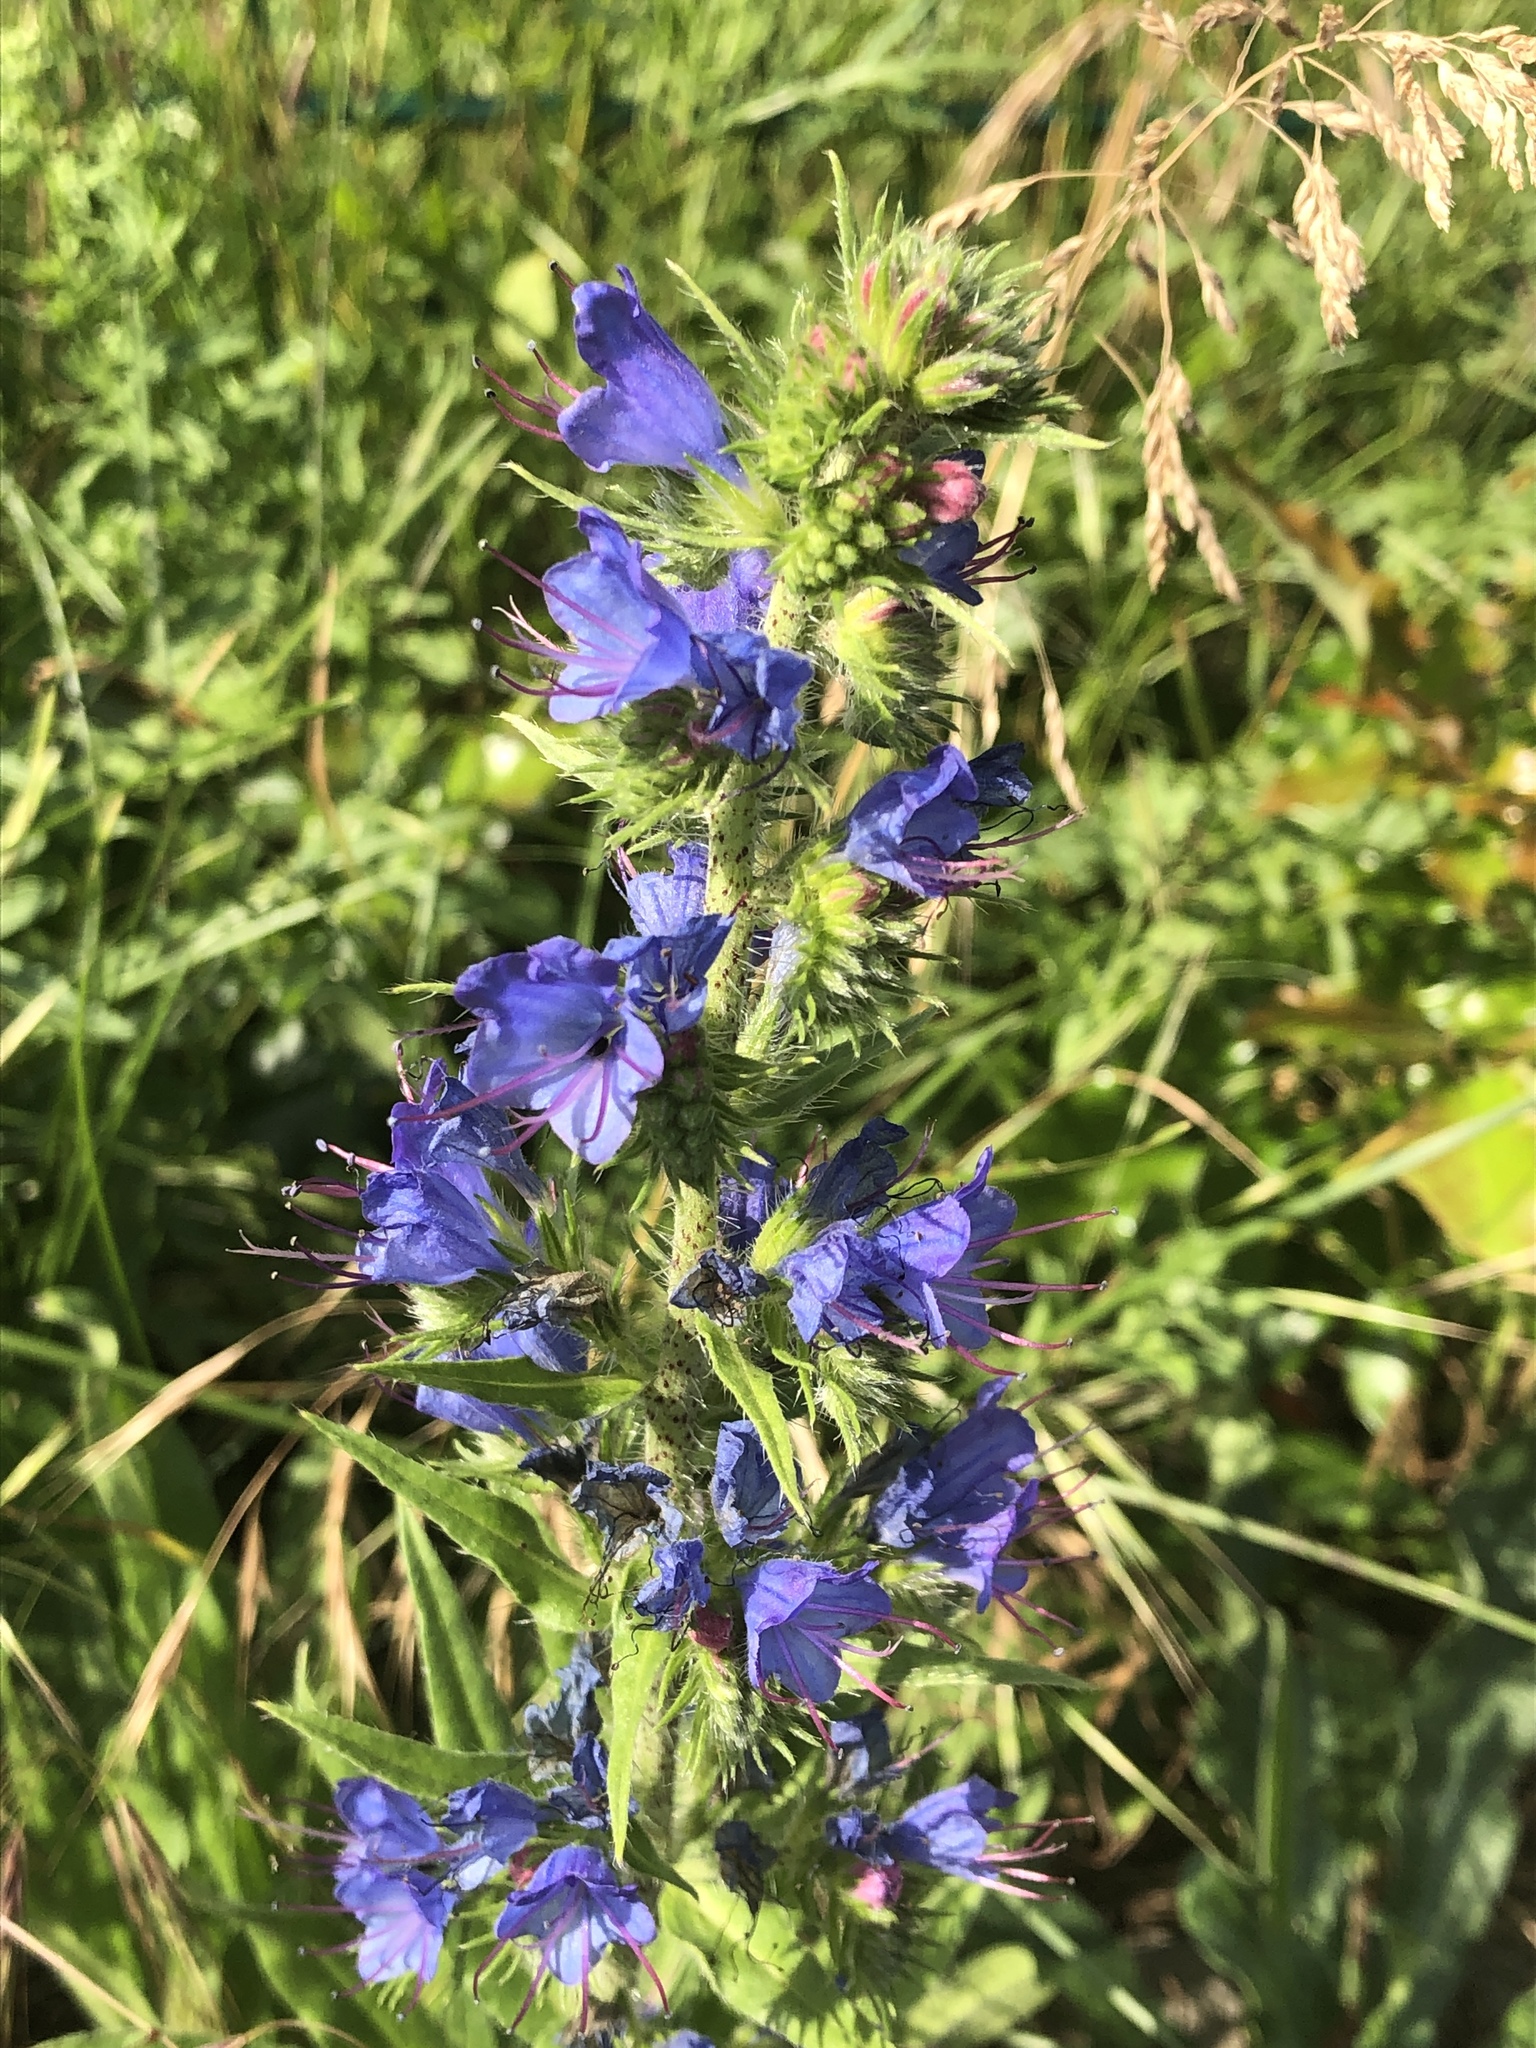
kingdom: Plantae
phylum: Tracheophyta
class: Magnoliopsida
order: Boraginales
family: Boraginaceae
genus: Echium
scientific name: Echium vulgare
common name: Common viper's bugloss
